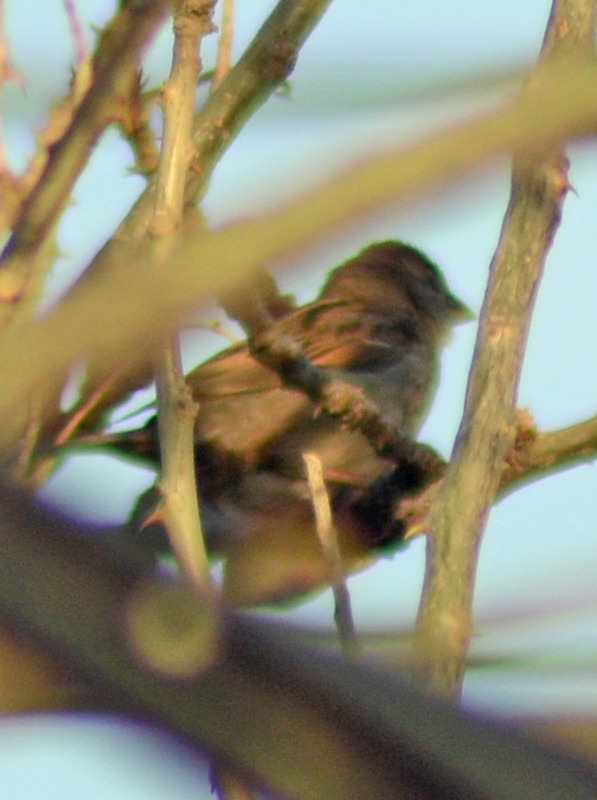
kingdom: Animalia
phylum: Chordata
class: Aves
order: Passeriformes
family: Passeridae
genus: Passer
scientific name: Passer domesticus
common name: House sparrow
